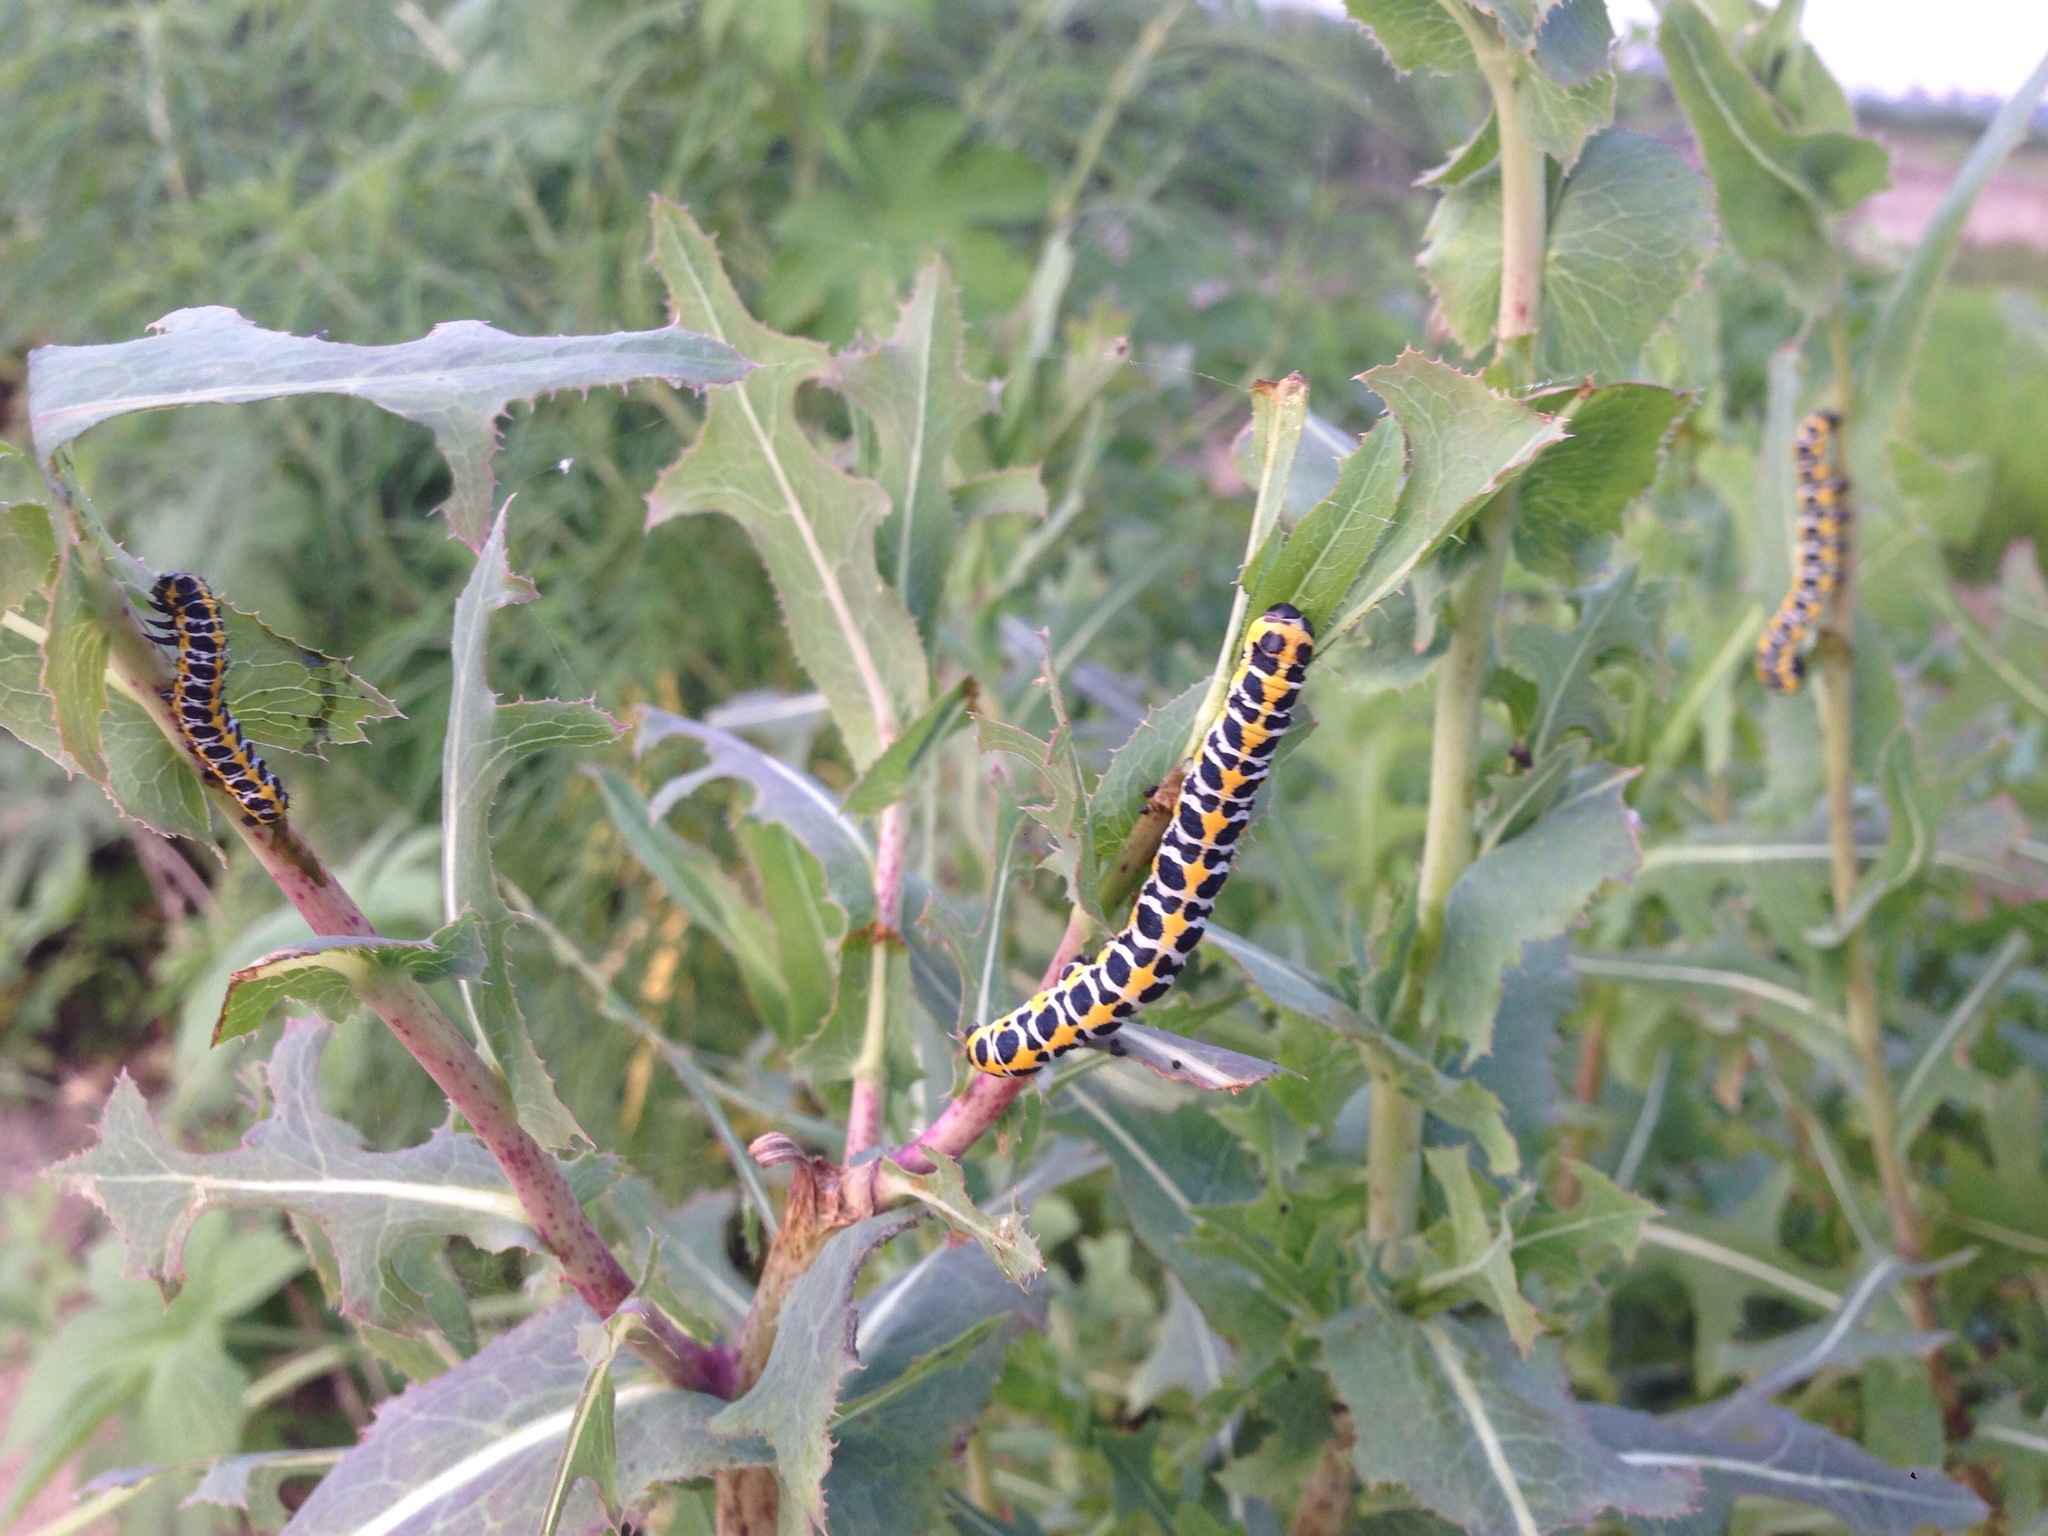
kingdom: Animalia
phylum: Arthropoda
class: Insecta
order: Lepidoptera
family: Noctuidae
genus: Cucullia
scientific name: Cucullia pustulata
